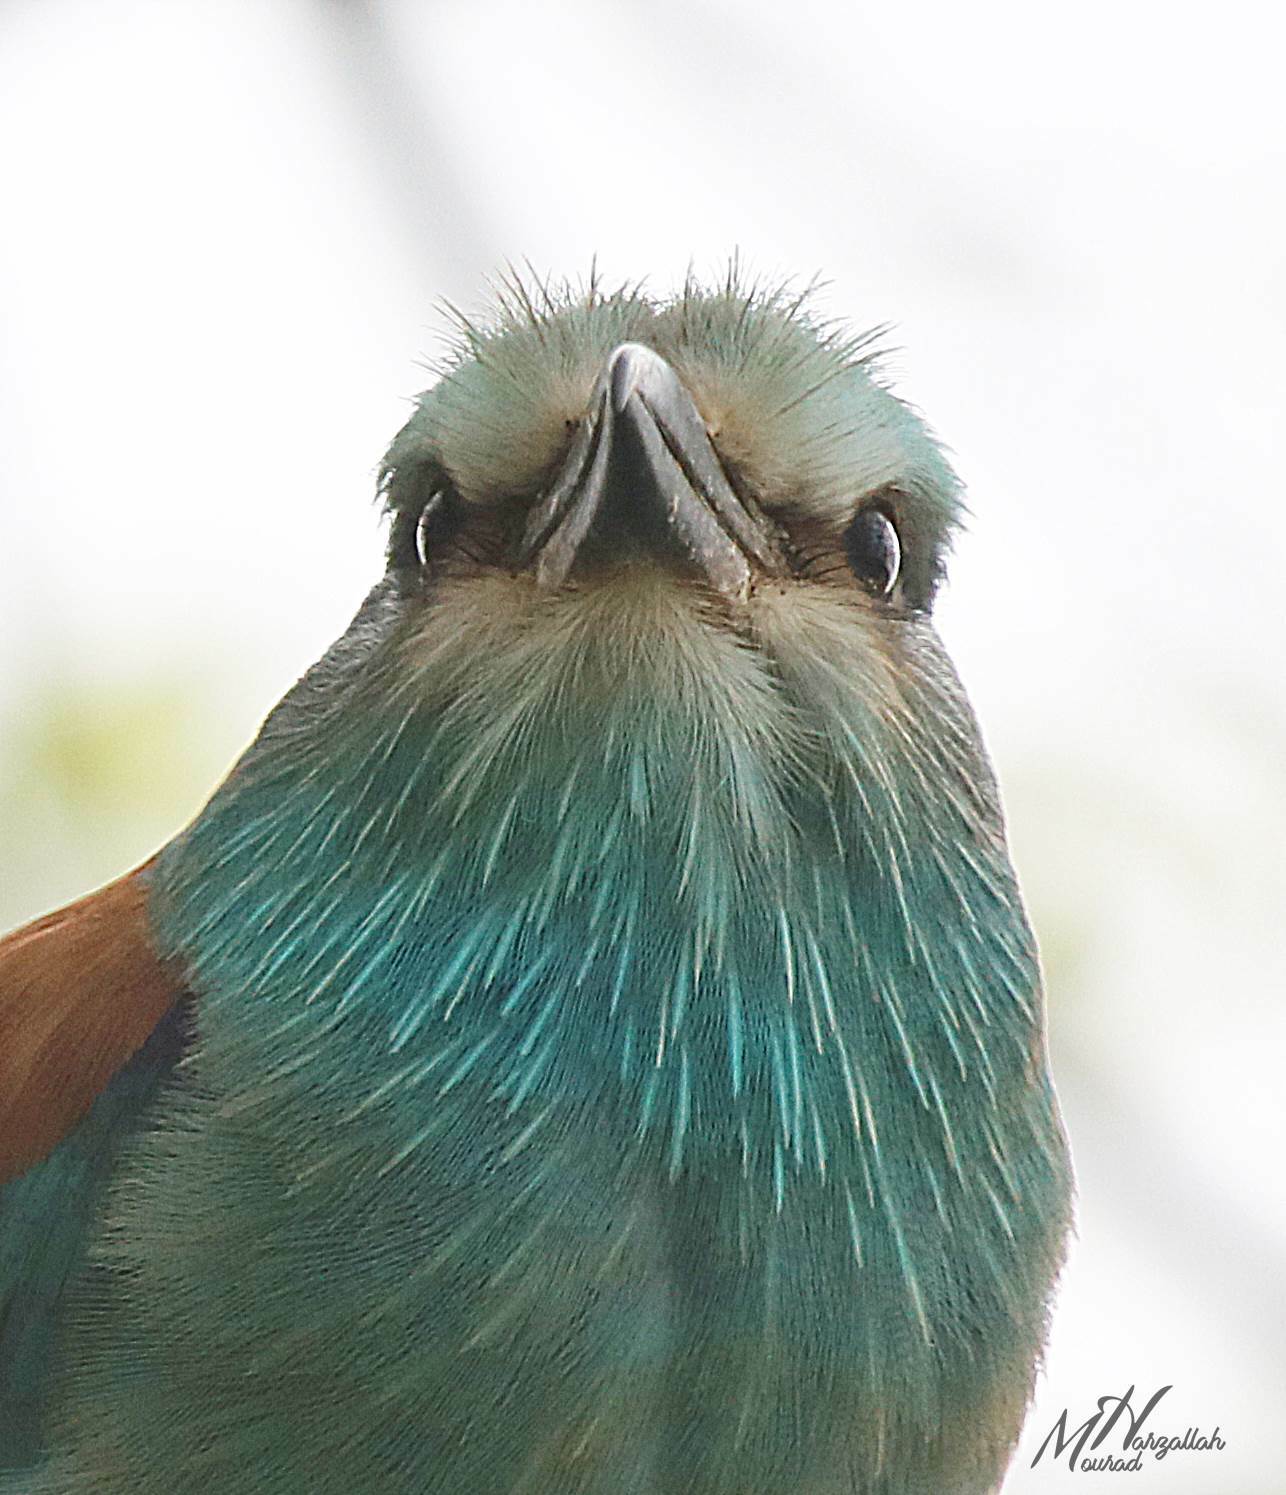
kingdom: Animalia
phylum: Chordata
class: Aves
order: Coraciiformes
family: Coraciidae
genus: Coracias
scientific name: Coracias garrulus
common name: European roller
